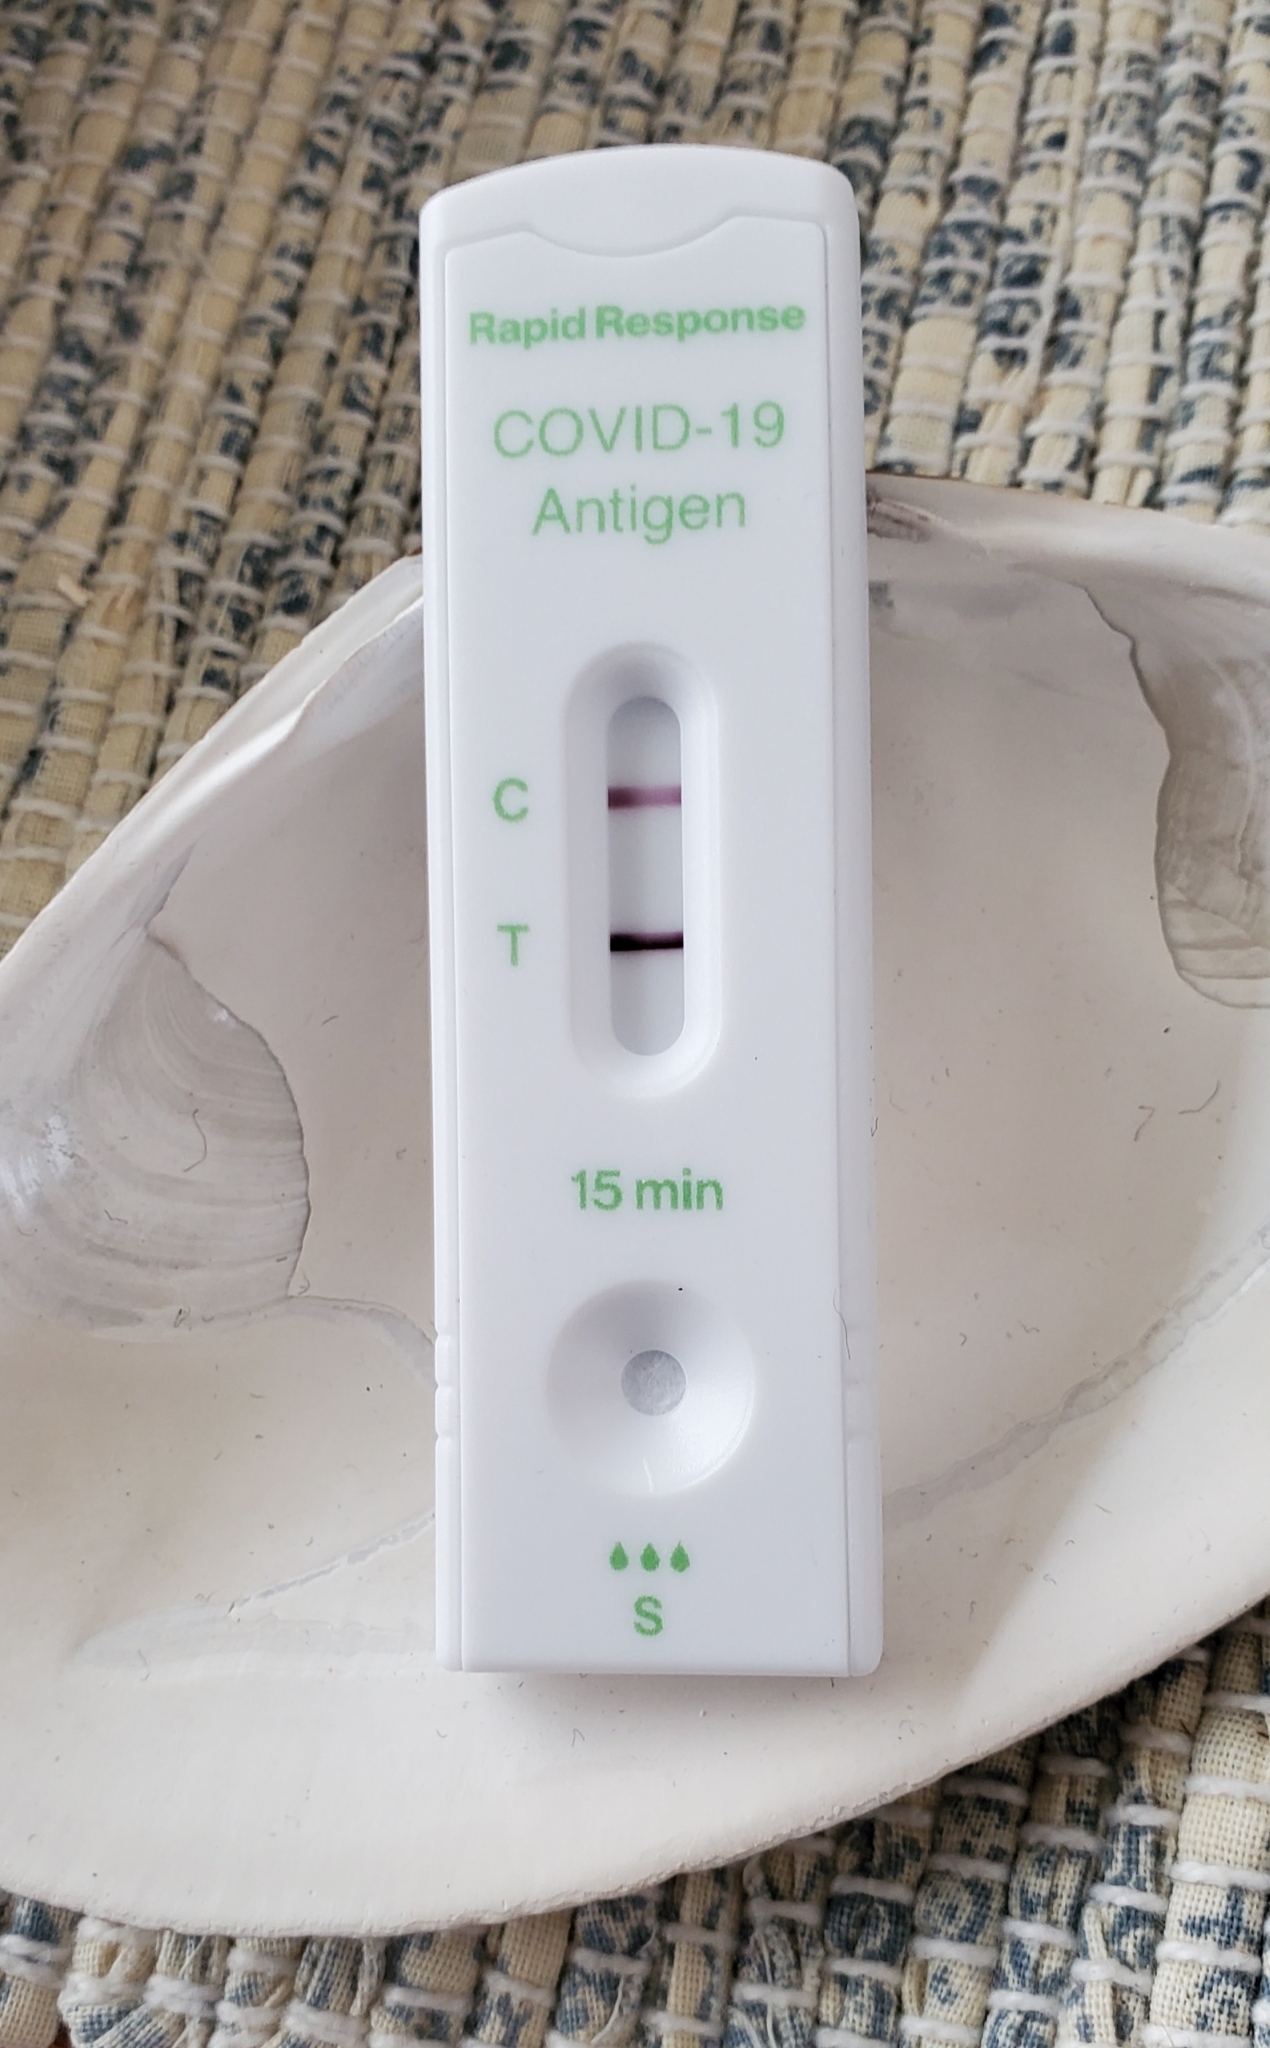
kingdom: Viruses
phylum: Pisuviricota
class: Pisoniviricetes
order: Nidovirales
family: Coronaviridae
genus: Betacoronavirus
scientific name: Betacoronavirus Severe acute respiratory syndrome-related coronavirus
